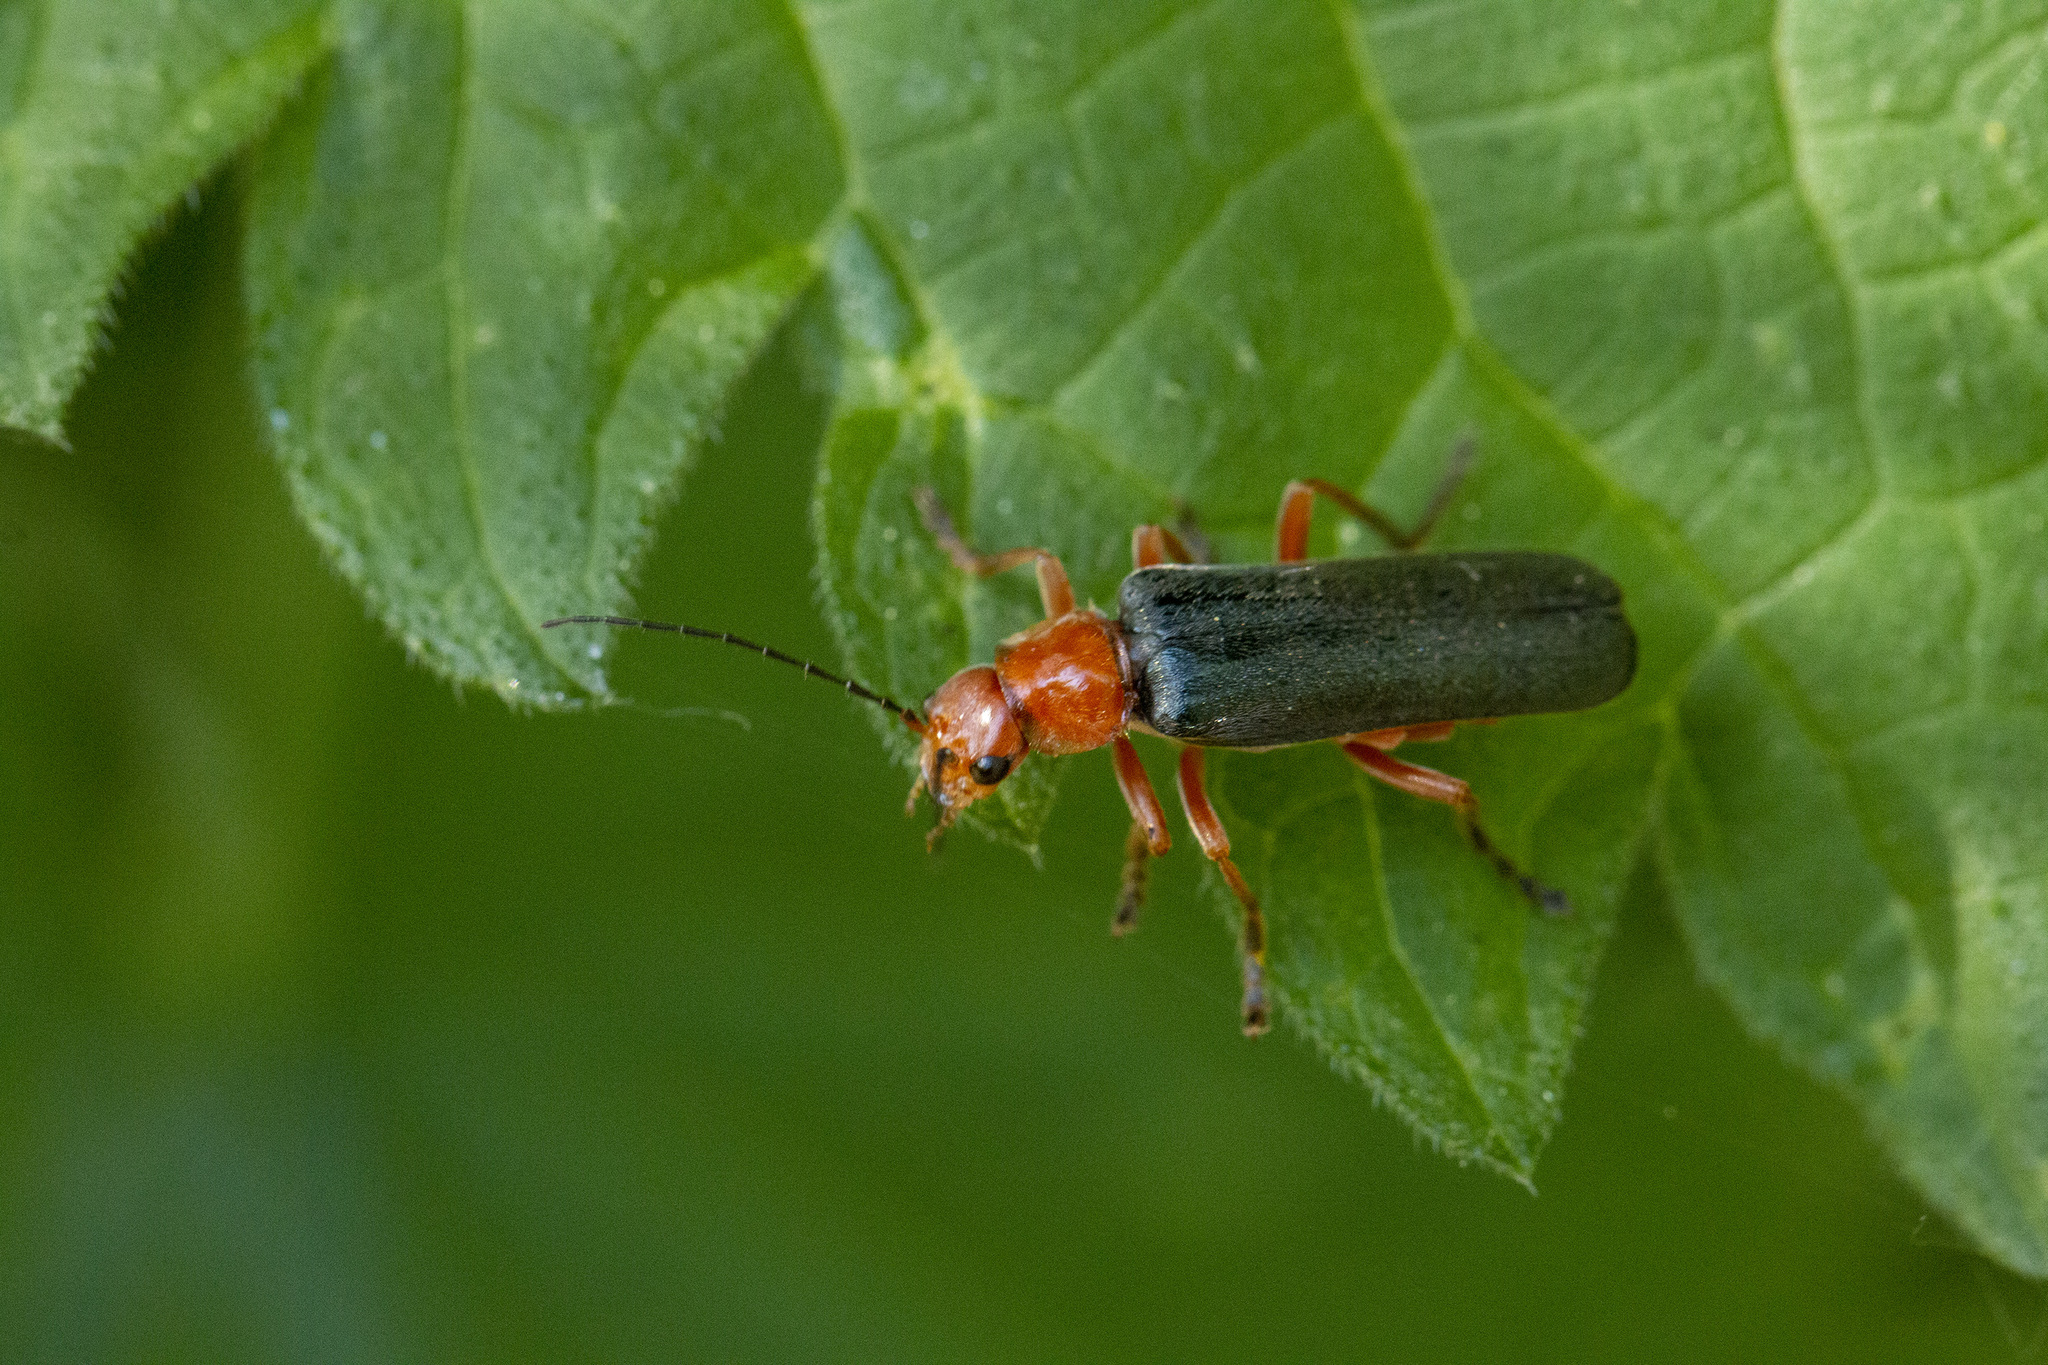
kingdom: Animalia
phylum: Arthropoda
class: Insecta
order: Coleoptera
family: Cantharidae
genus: Ancistronycha
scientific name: Ancistronycha tigurina
